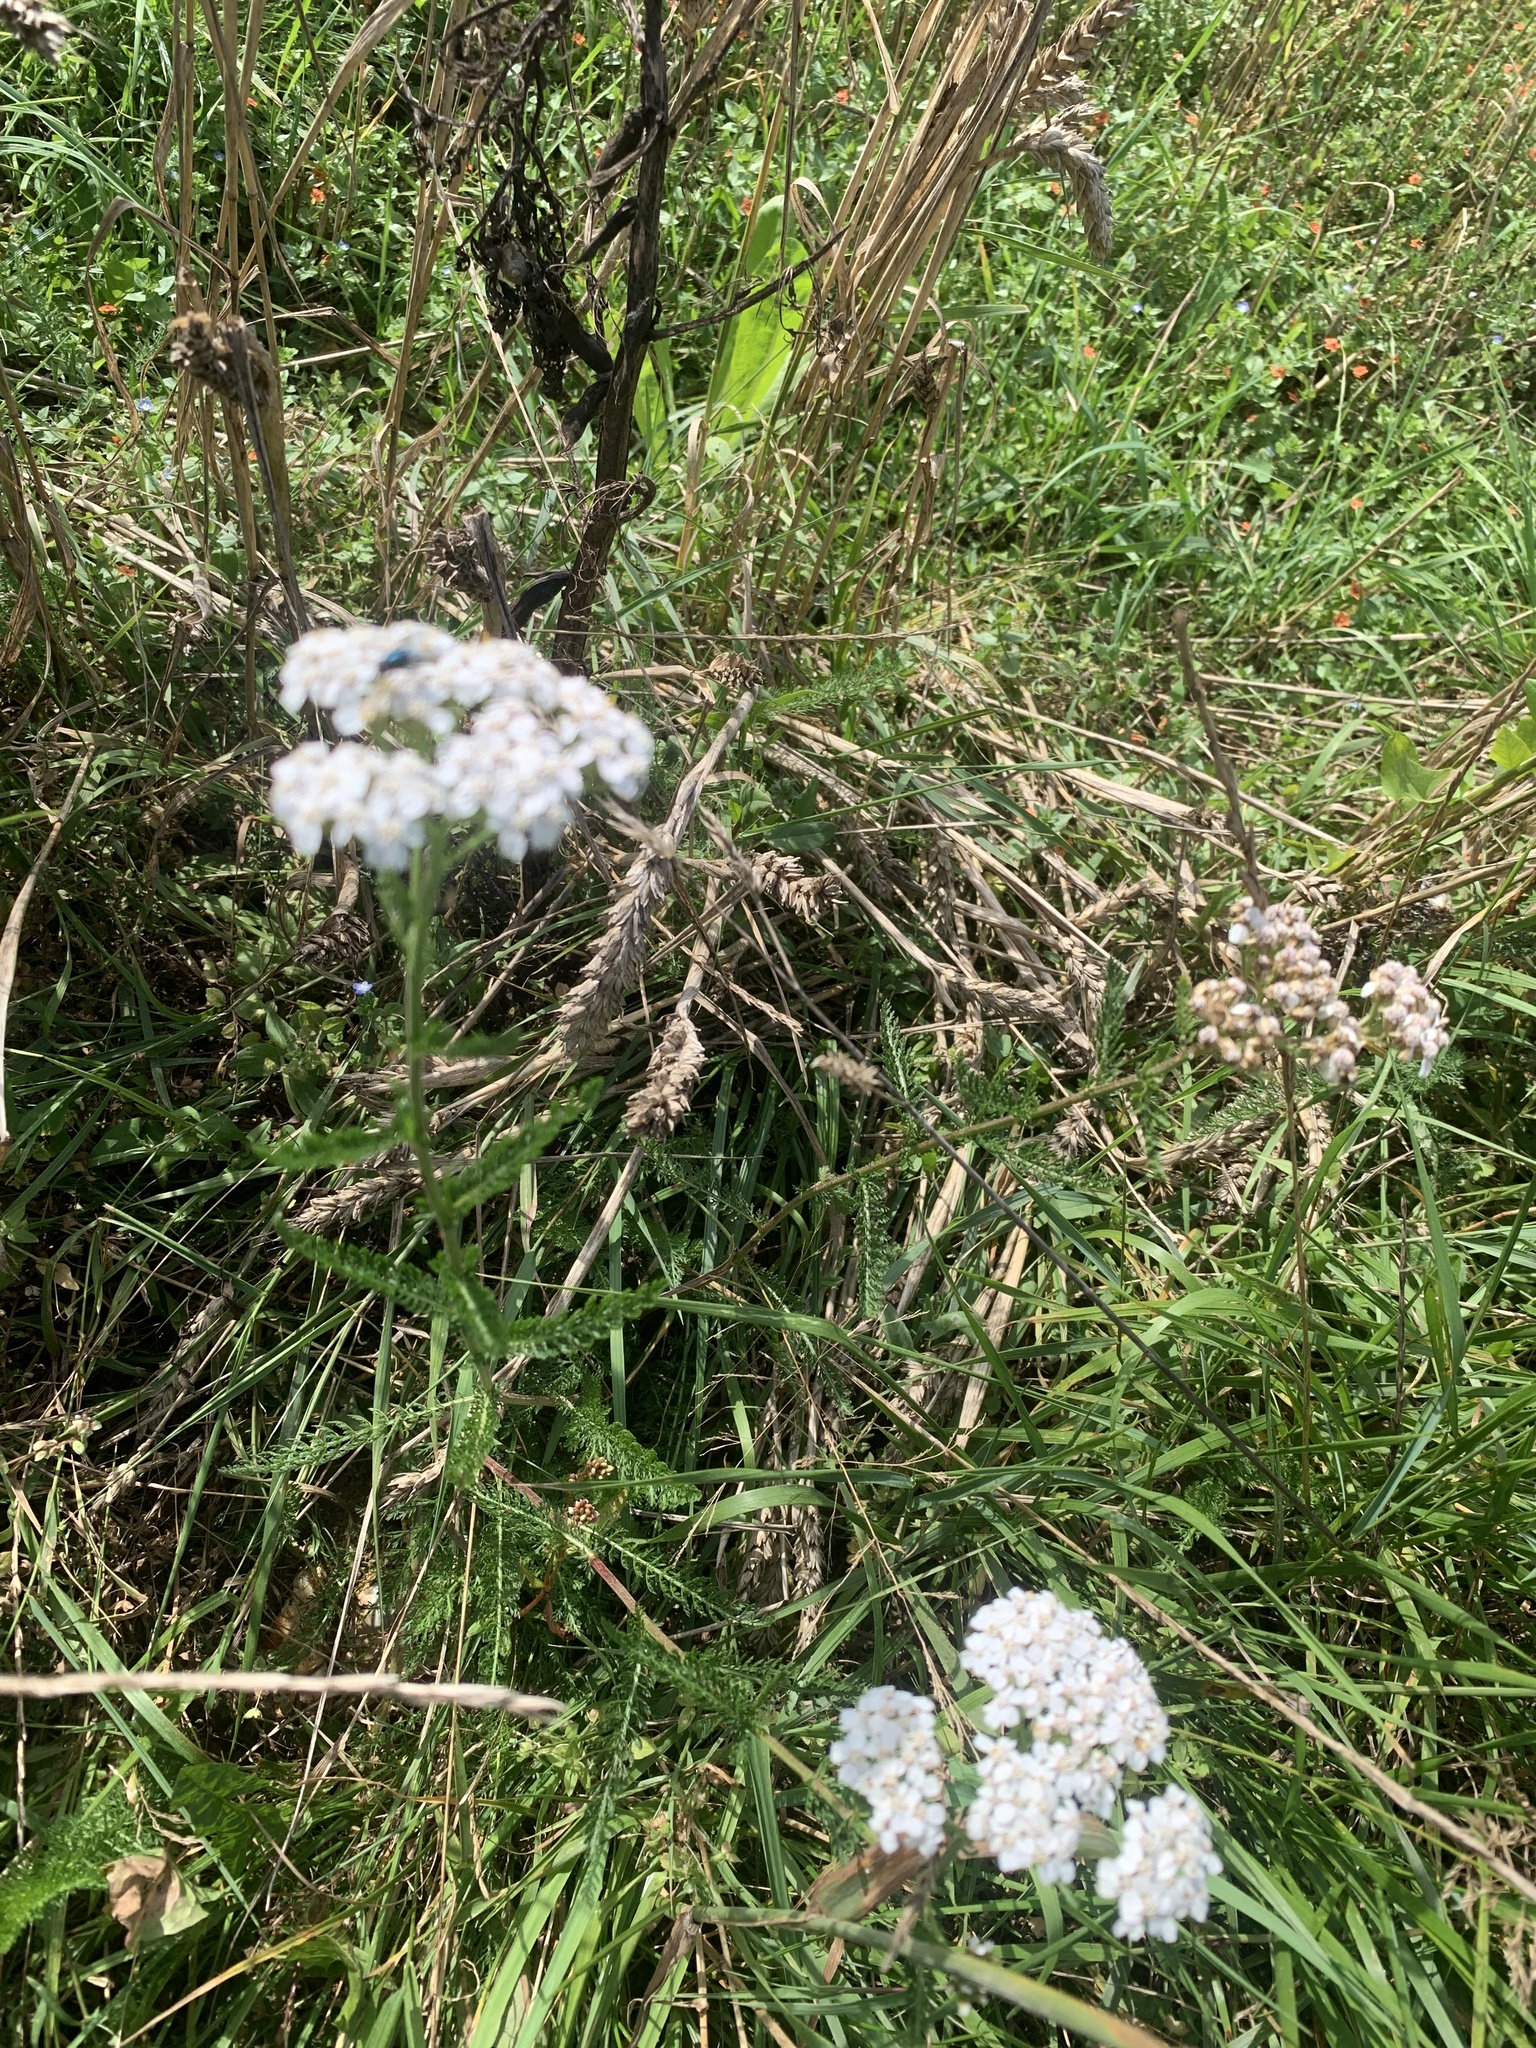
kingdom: Plantae
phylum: Tracheophyta
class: Magnoliopsida
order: Asterales
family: Asteraceae
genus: Achillea
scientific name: Achillea millefolium
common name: Yarrow
